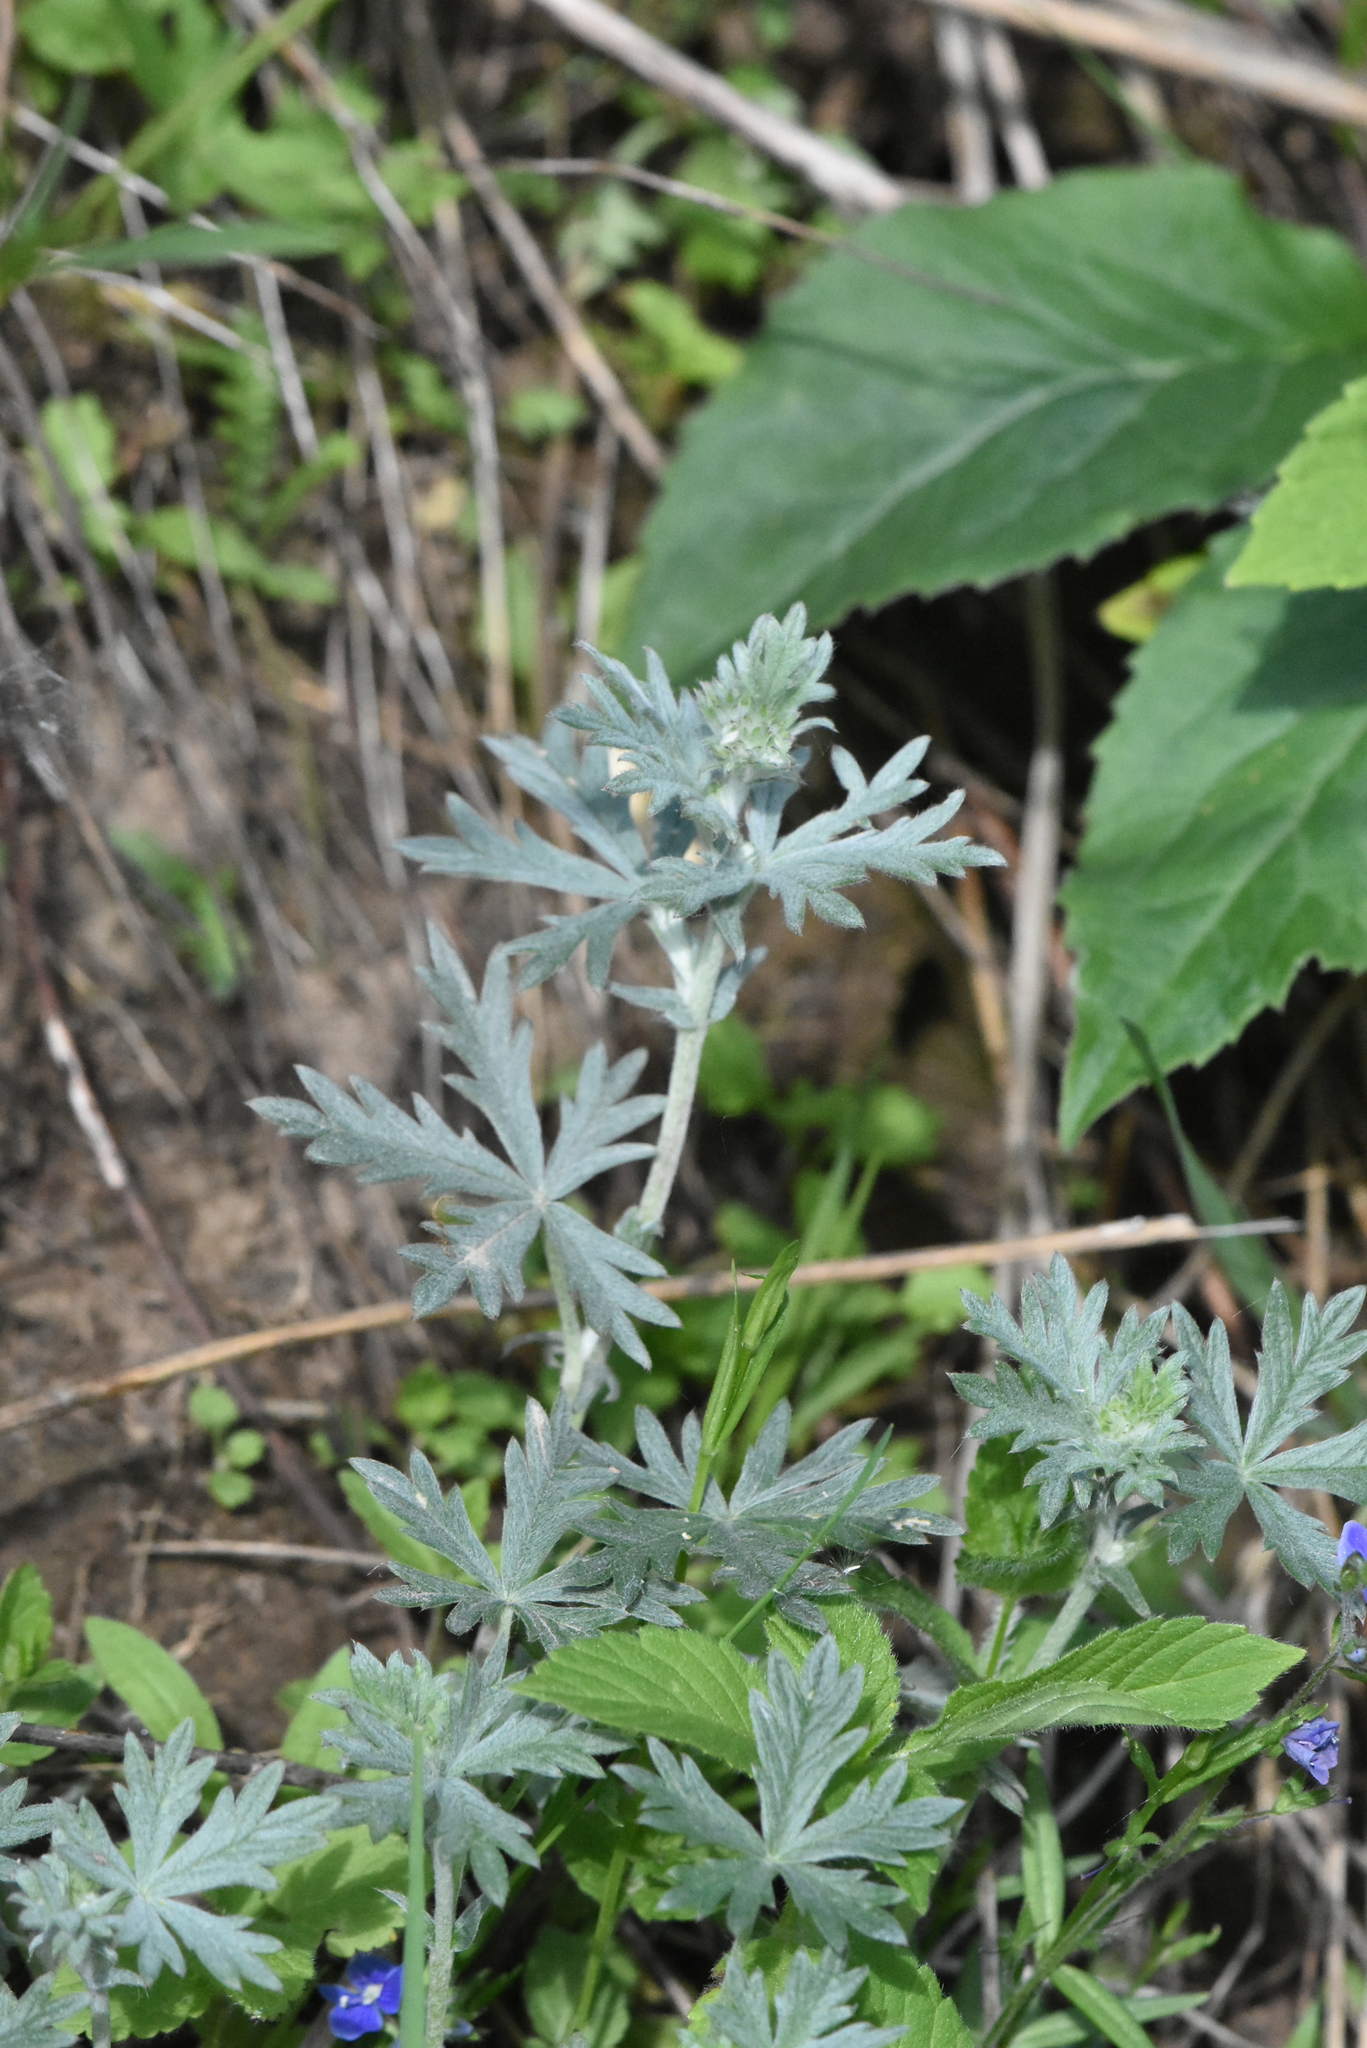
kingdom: Plantae
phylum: Tracheophyta
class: Magnoliopsida
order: Rosales
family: Rosaceae
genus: Potentilla
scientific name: Potentilla argentea
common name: Hoary cinquefoil
